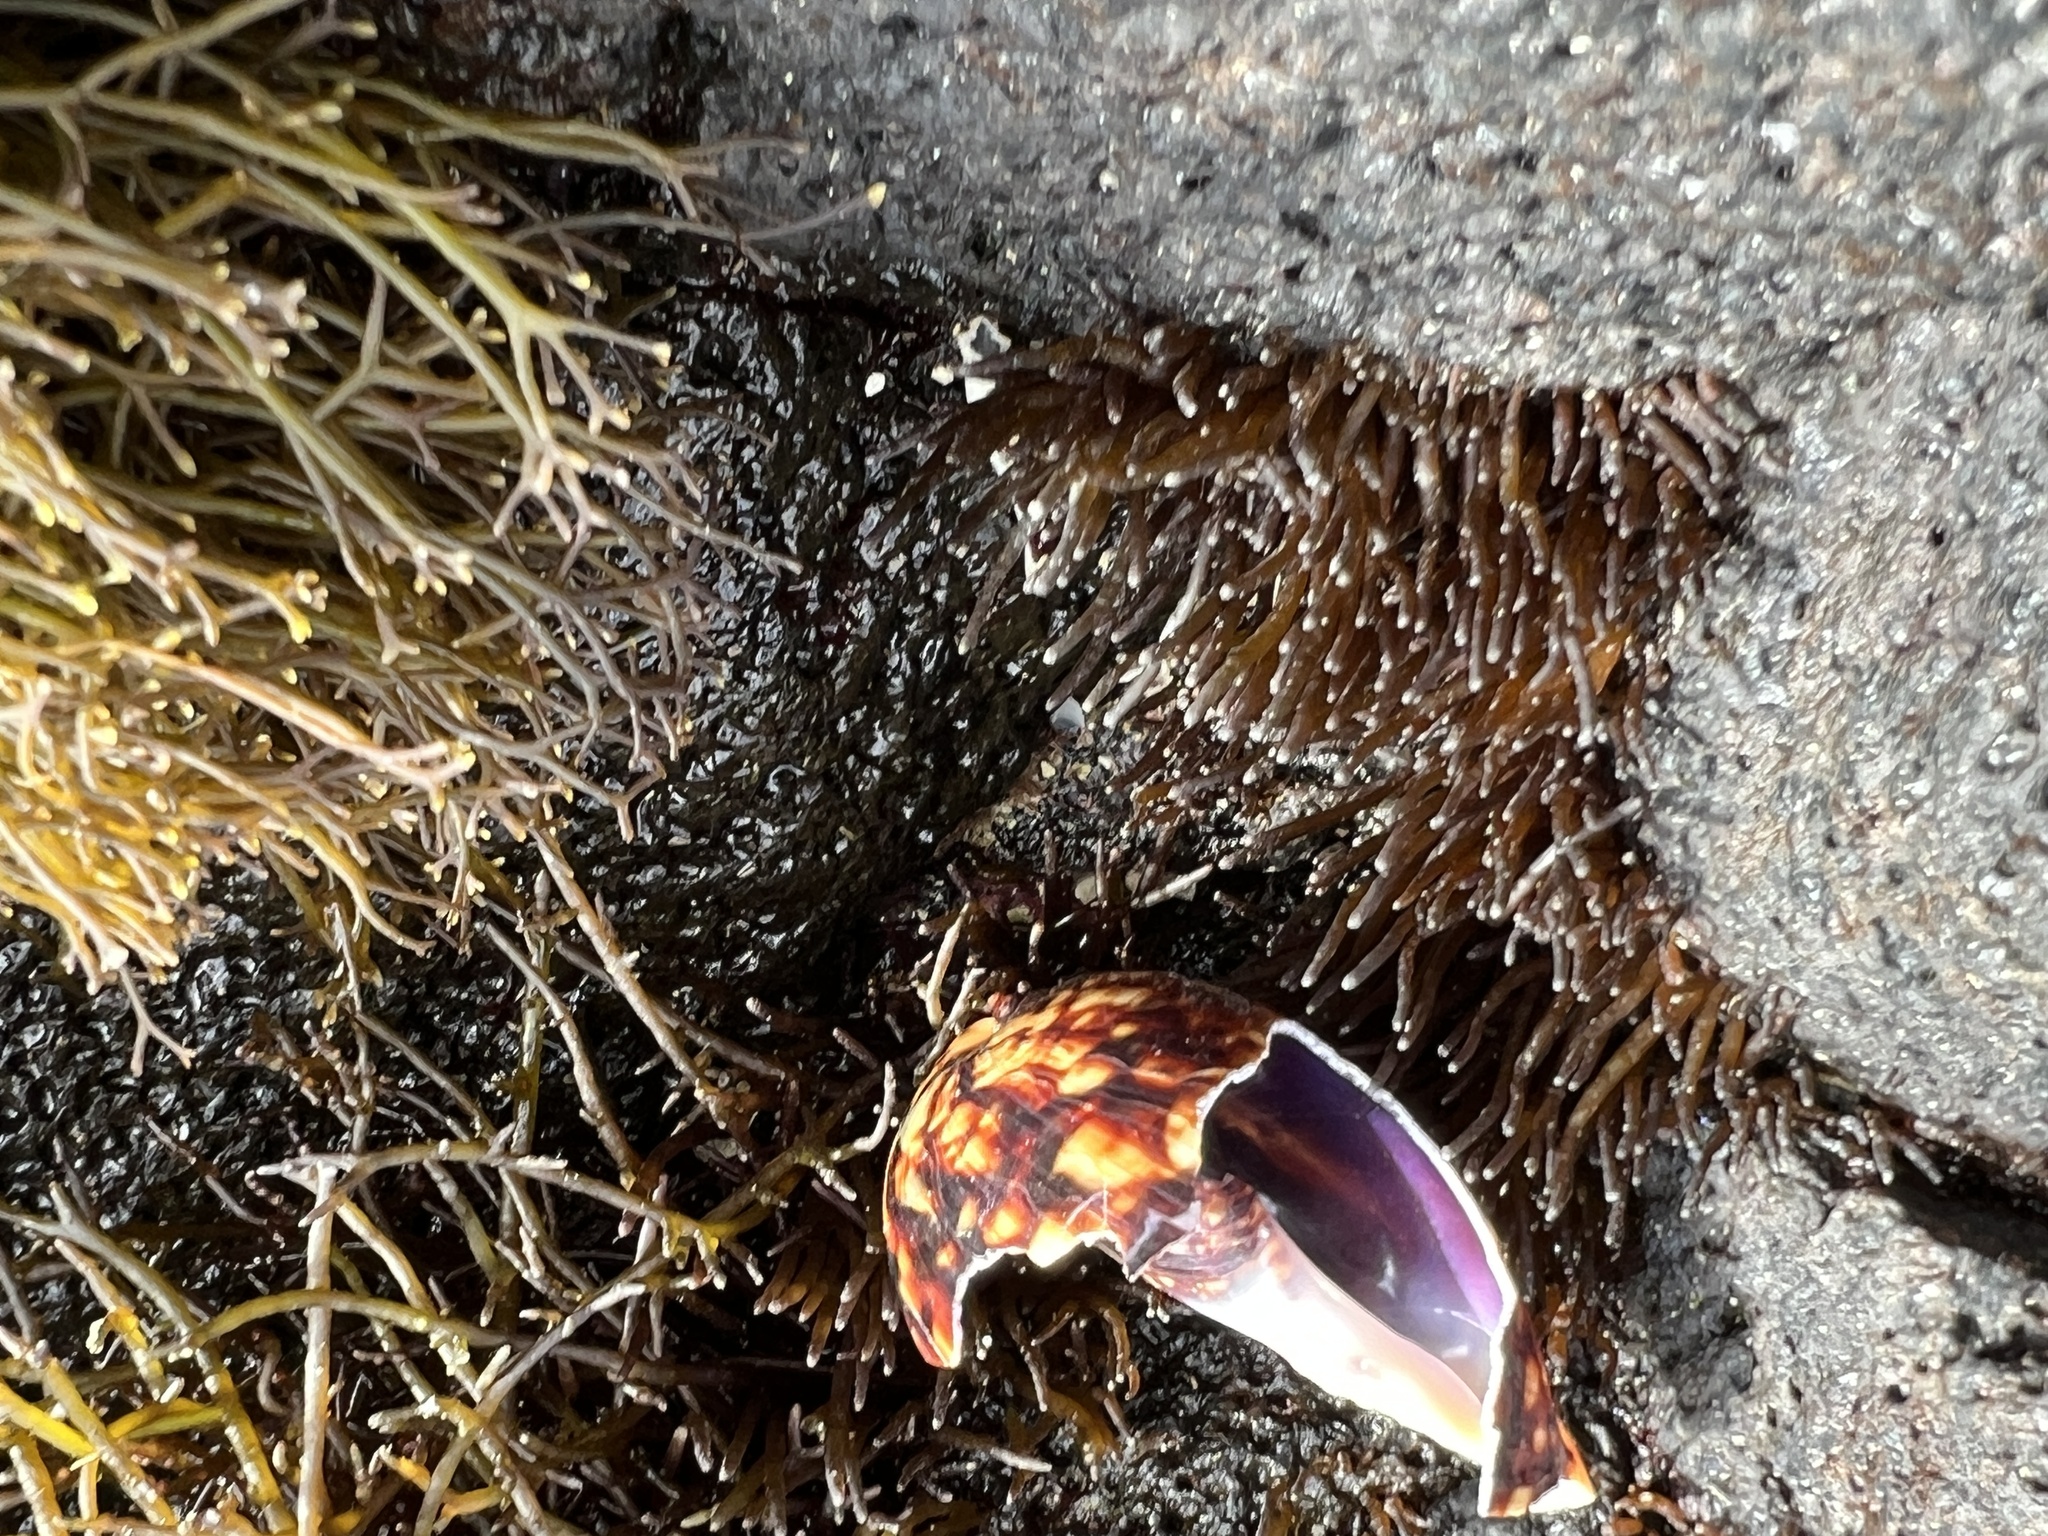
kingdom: Animalia
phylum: Mollusca
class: Gastropoda
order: Littorinimorpha
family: Cypraeidae
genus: Mauritia
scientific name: Mauritia mauritiana
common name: Hump-backed cowrie
